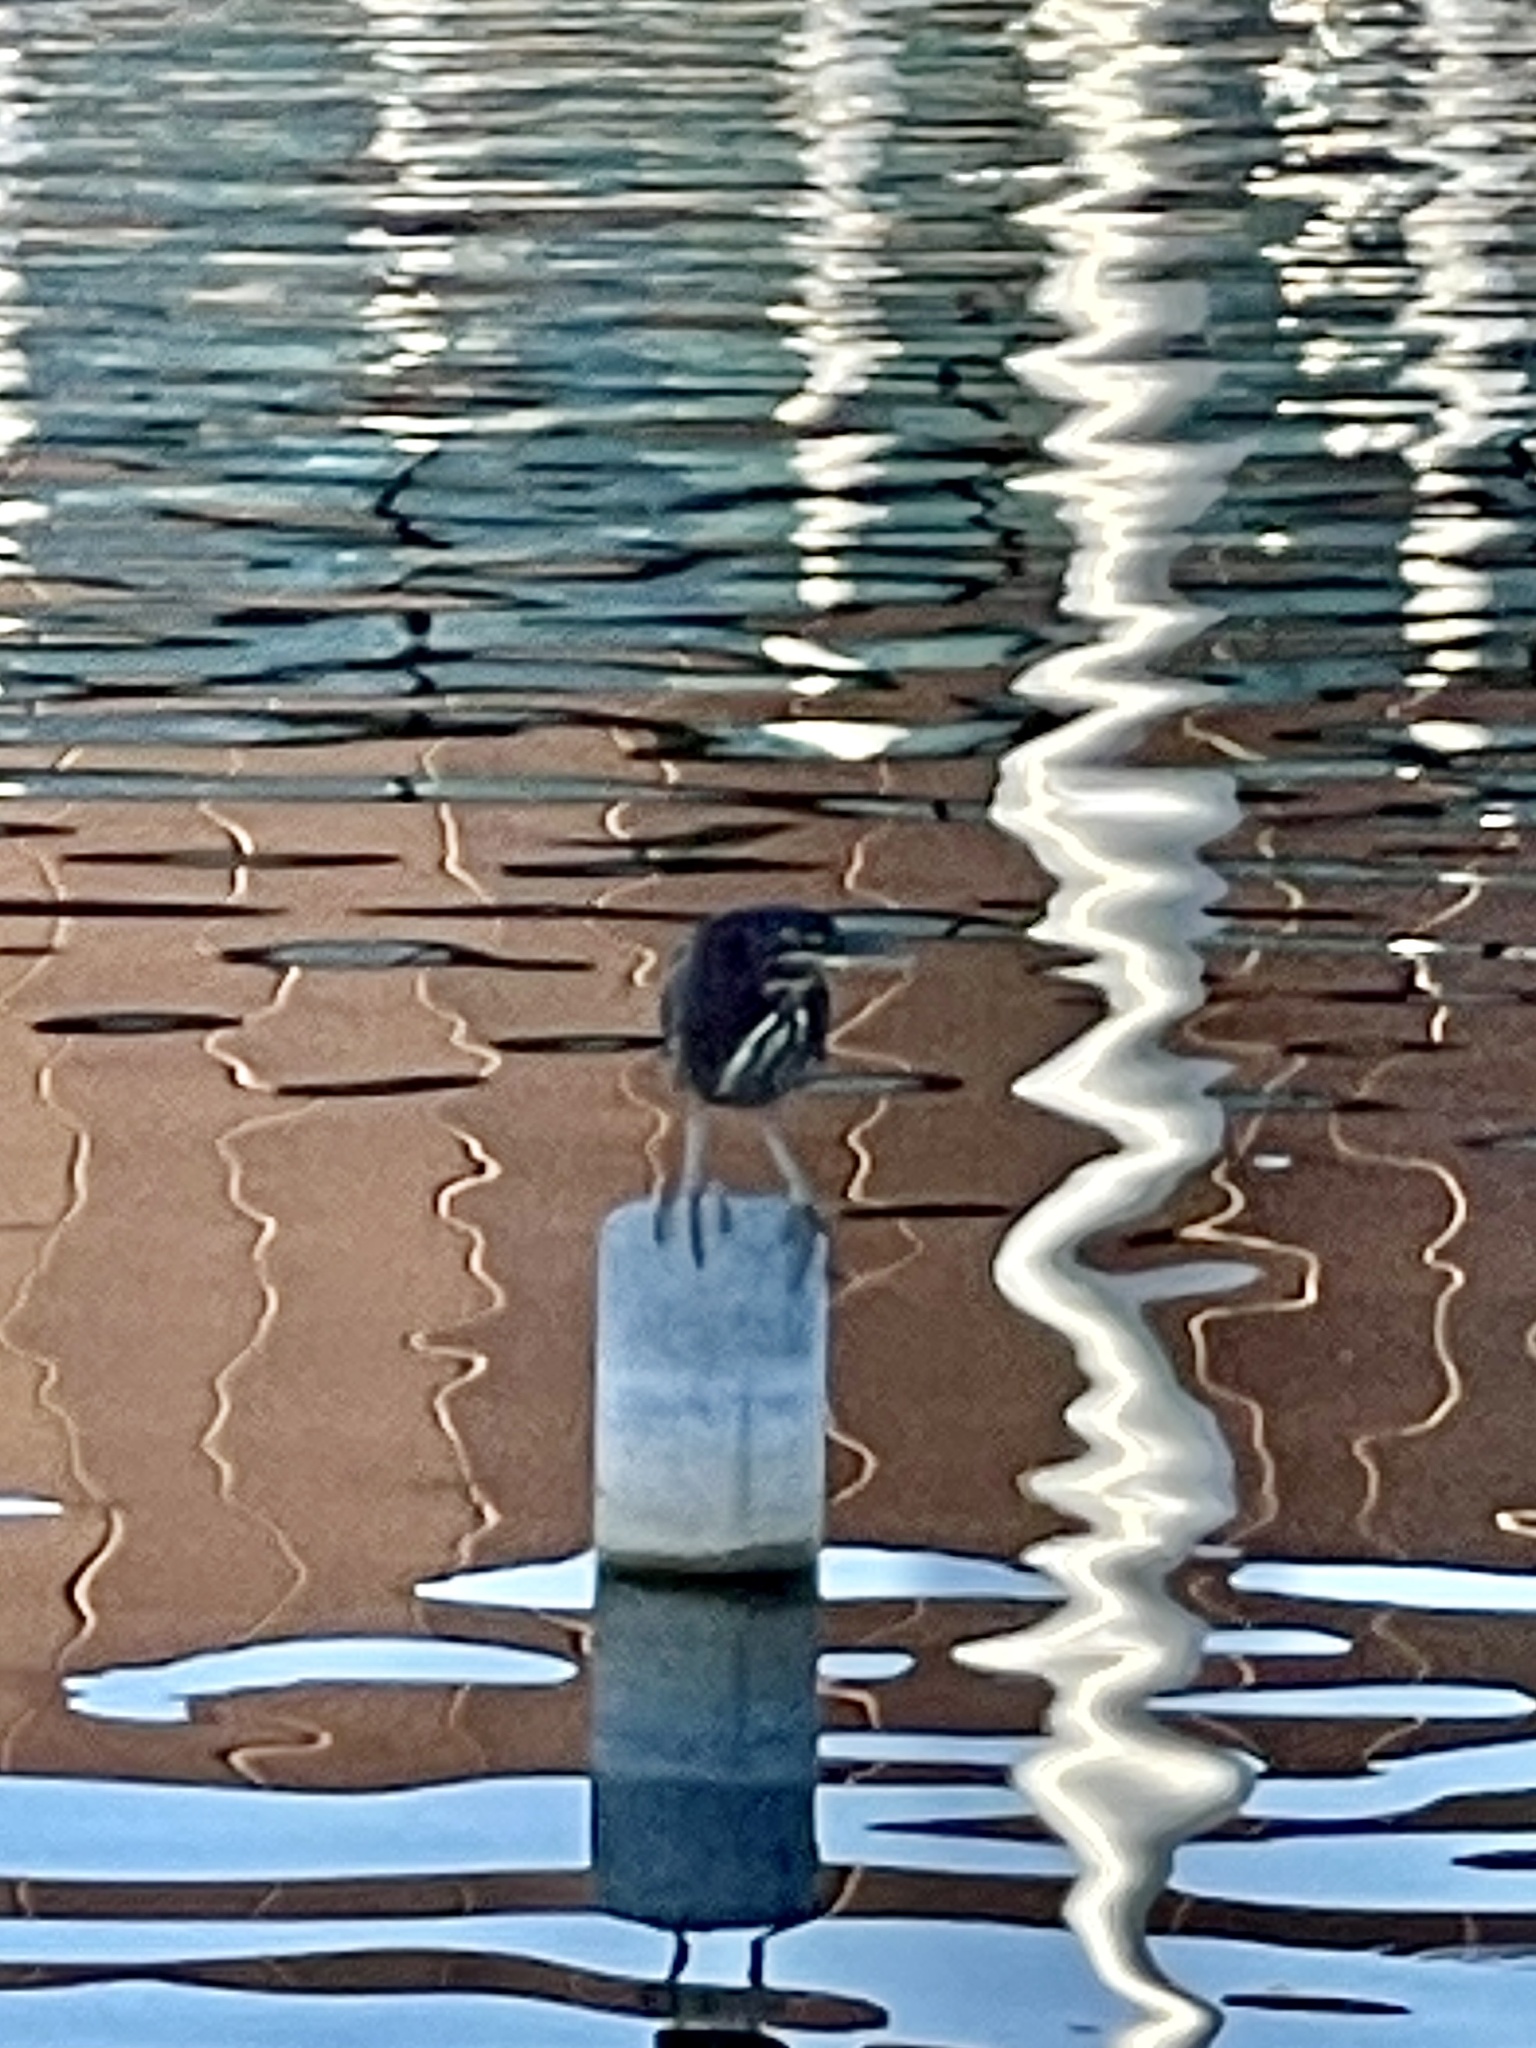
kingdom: Animalia
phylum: Chordata
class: Aves
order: Pelecaniformes
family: Ardeidae
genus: Butorides
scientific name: Butorides virescens
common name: Green heron
